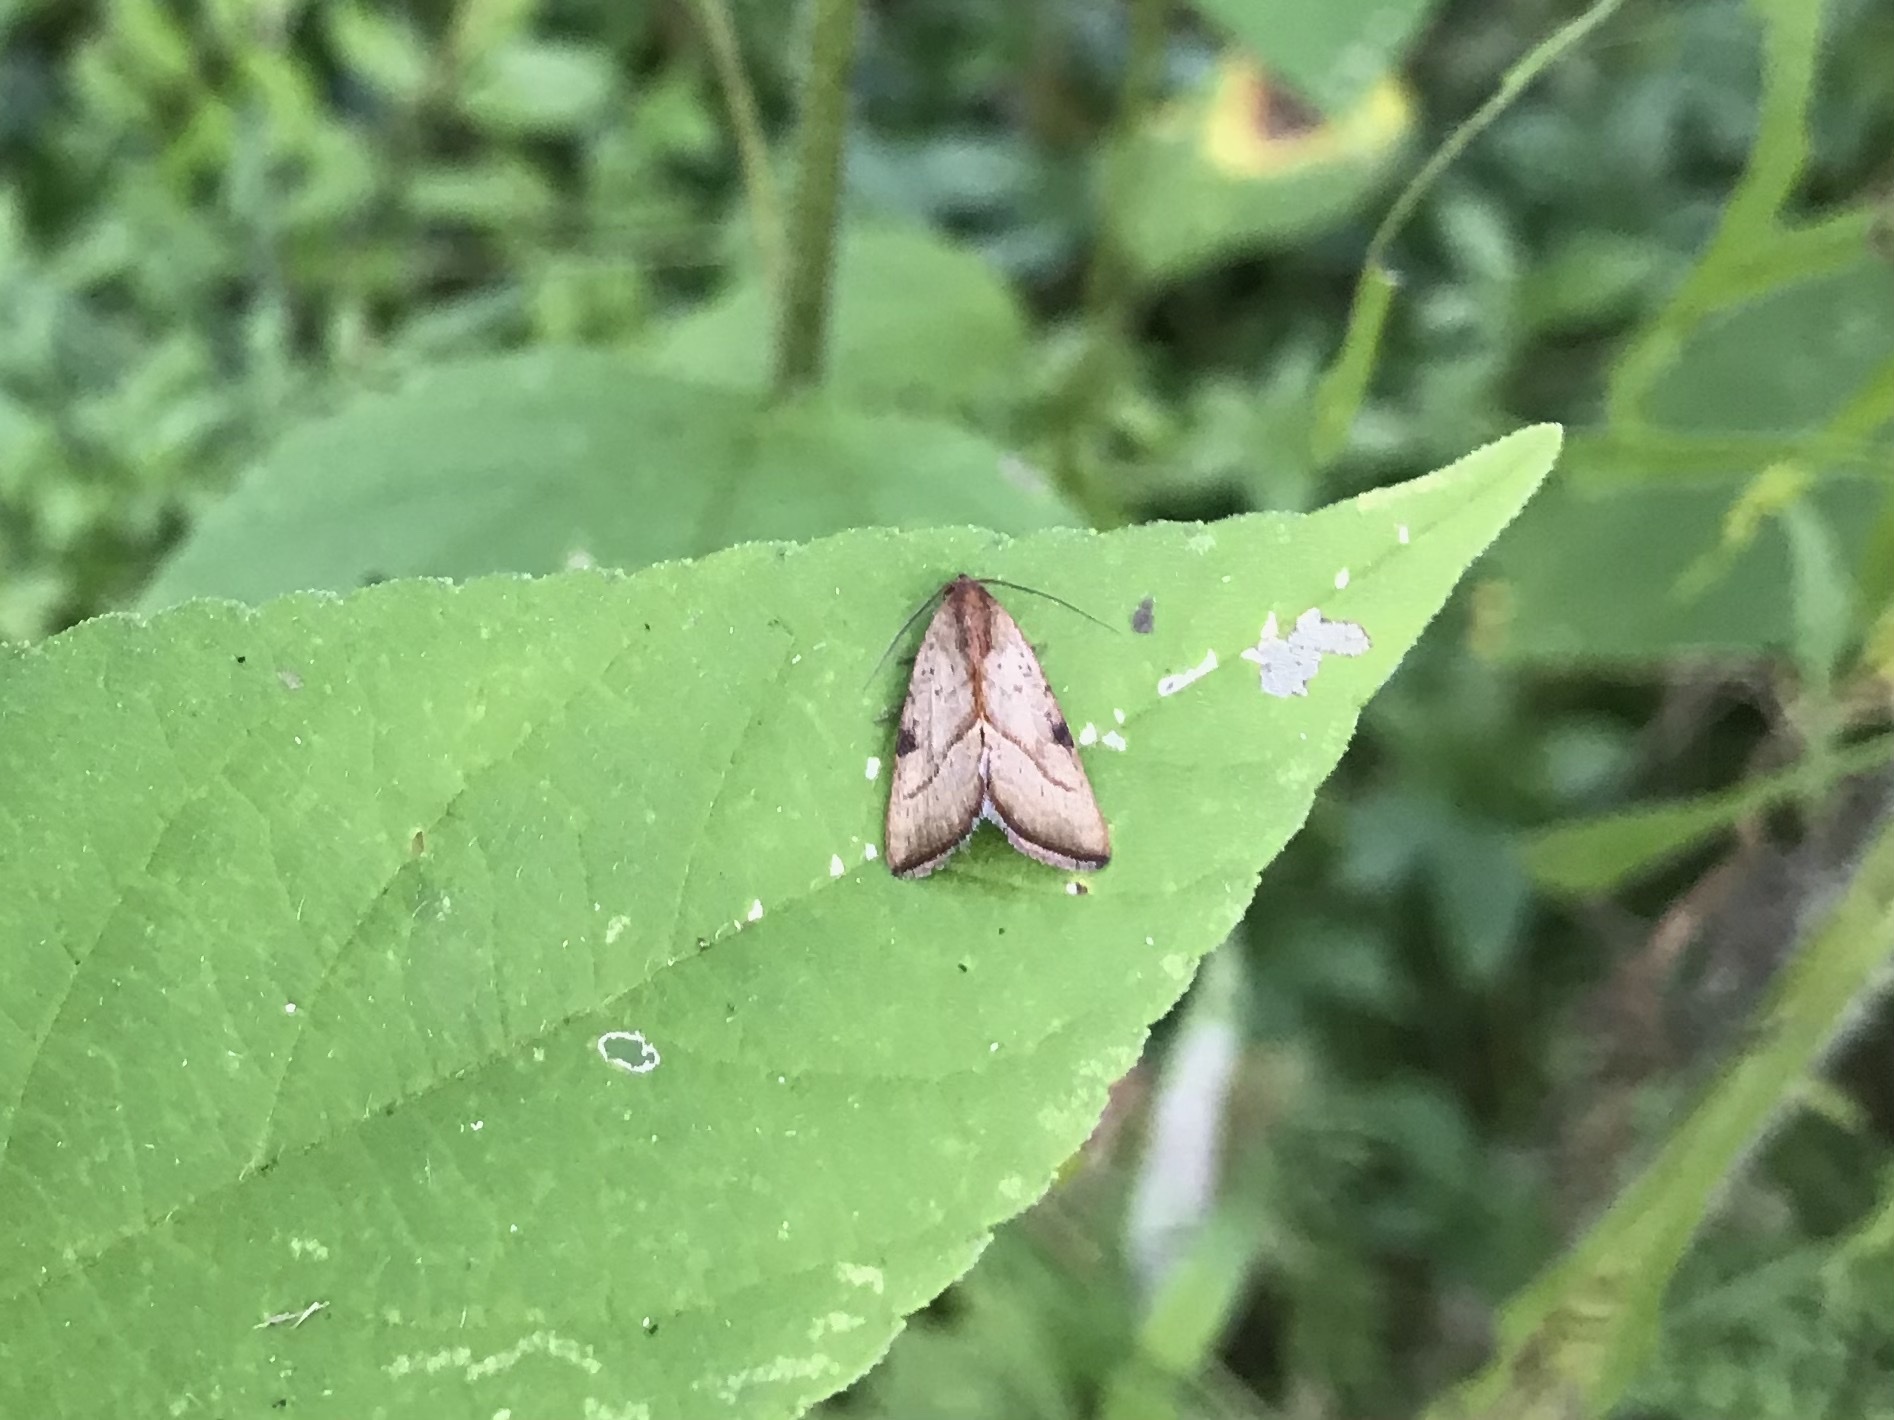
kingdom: Animalia
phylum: Arthropoda
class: Insecta
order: Lepidoptera
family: Noctuidae
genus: Galgula
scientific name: Galgula partita
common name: Wedgeling
